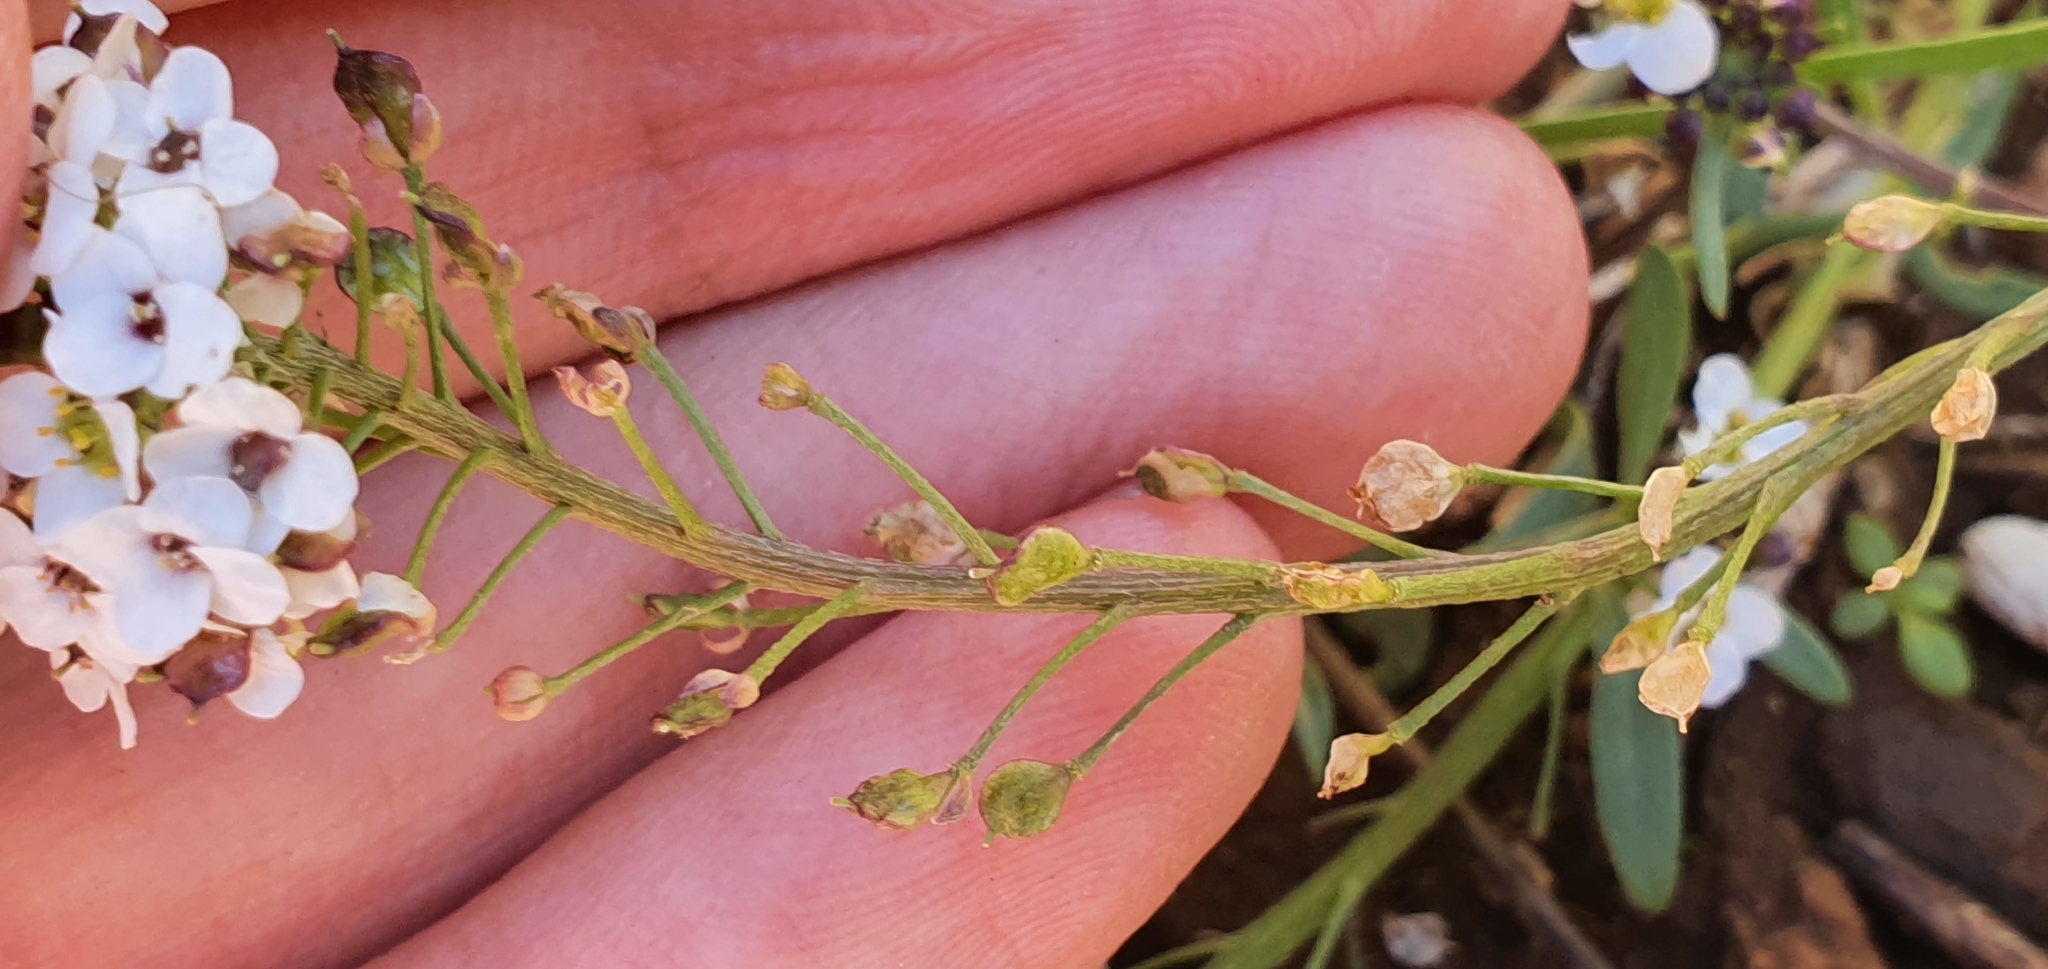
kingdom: Plantae
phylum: Tracheophyta
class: Magnoliopsida
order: Brassicales
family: Brassicaceae
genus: Lobularia
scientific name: Lobularia maritima
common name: Sweet alison
